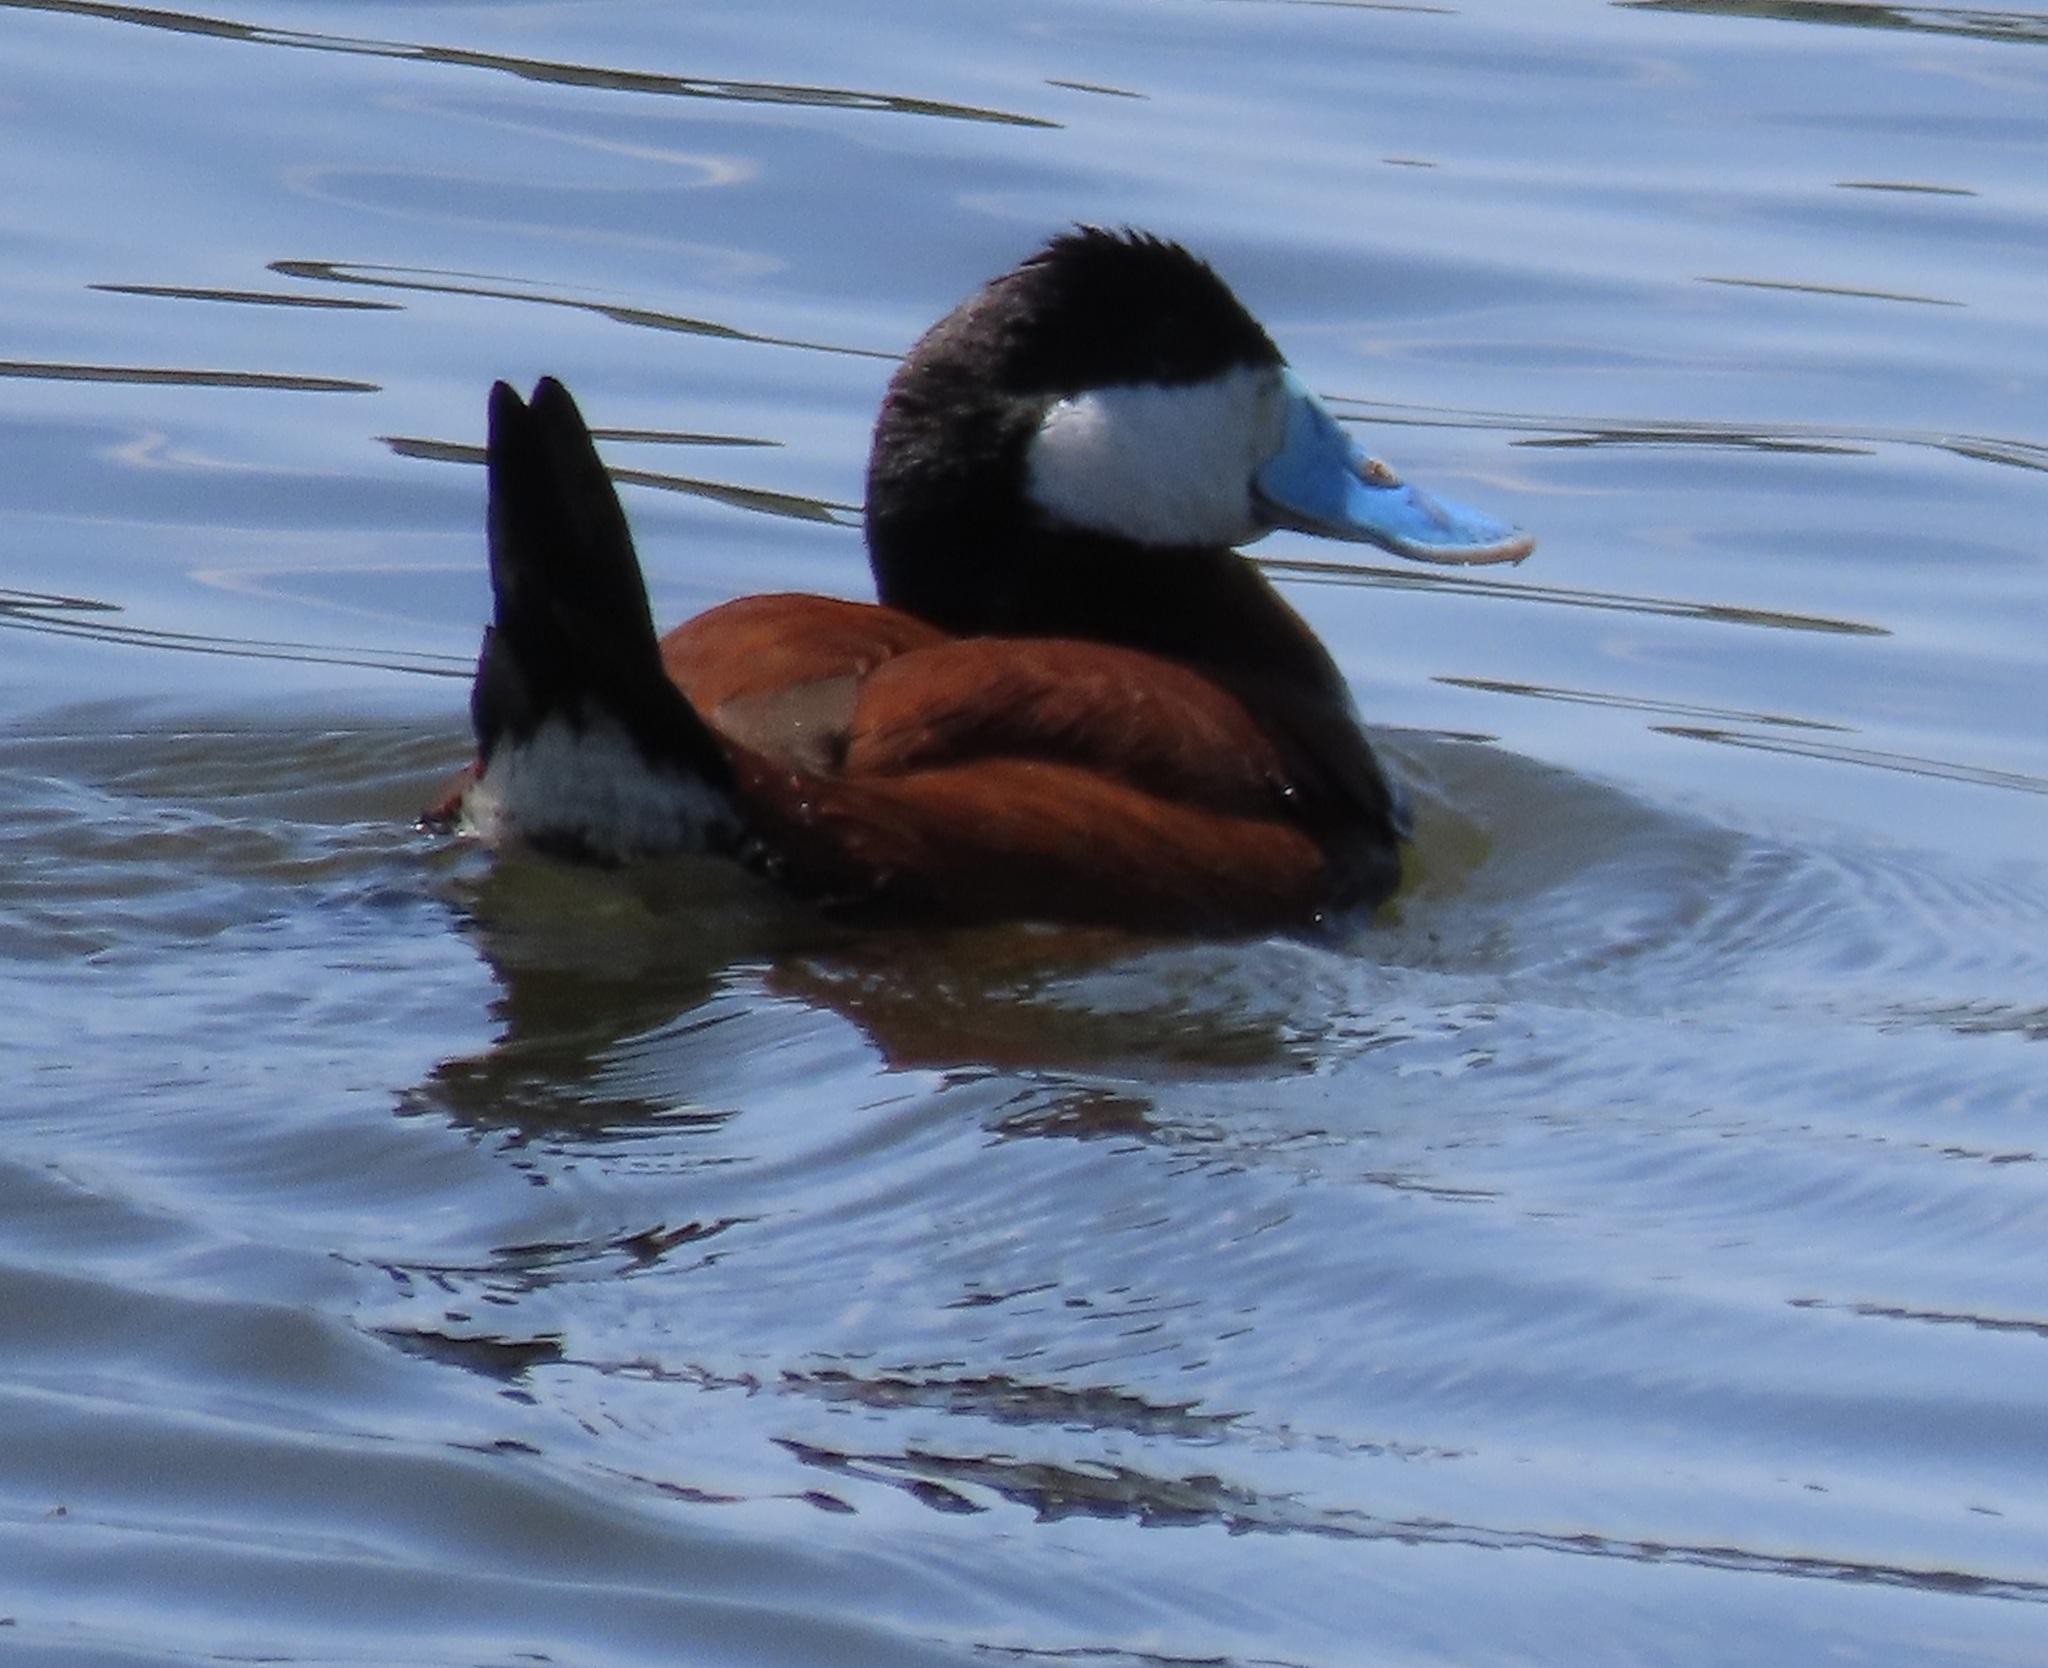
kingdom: Animalia
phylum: Chordata
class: Aves
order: Anseriformes
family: Anatidae
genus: Oxyura
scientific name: Oxyura jamaicensis
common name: Ruddy duck
